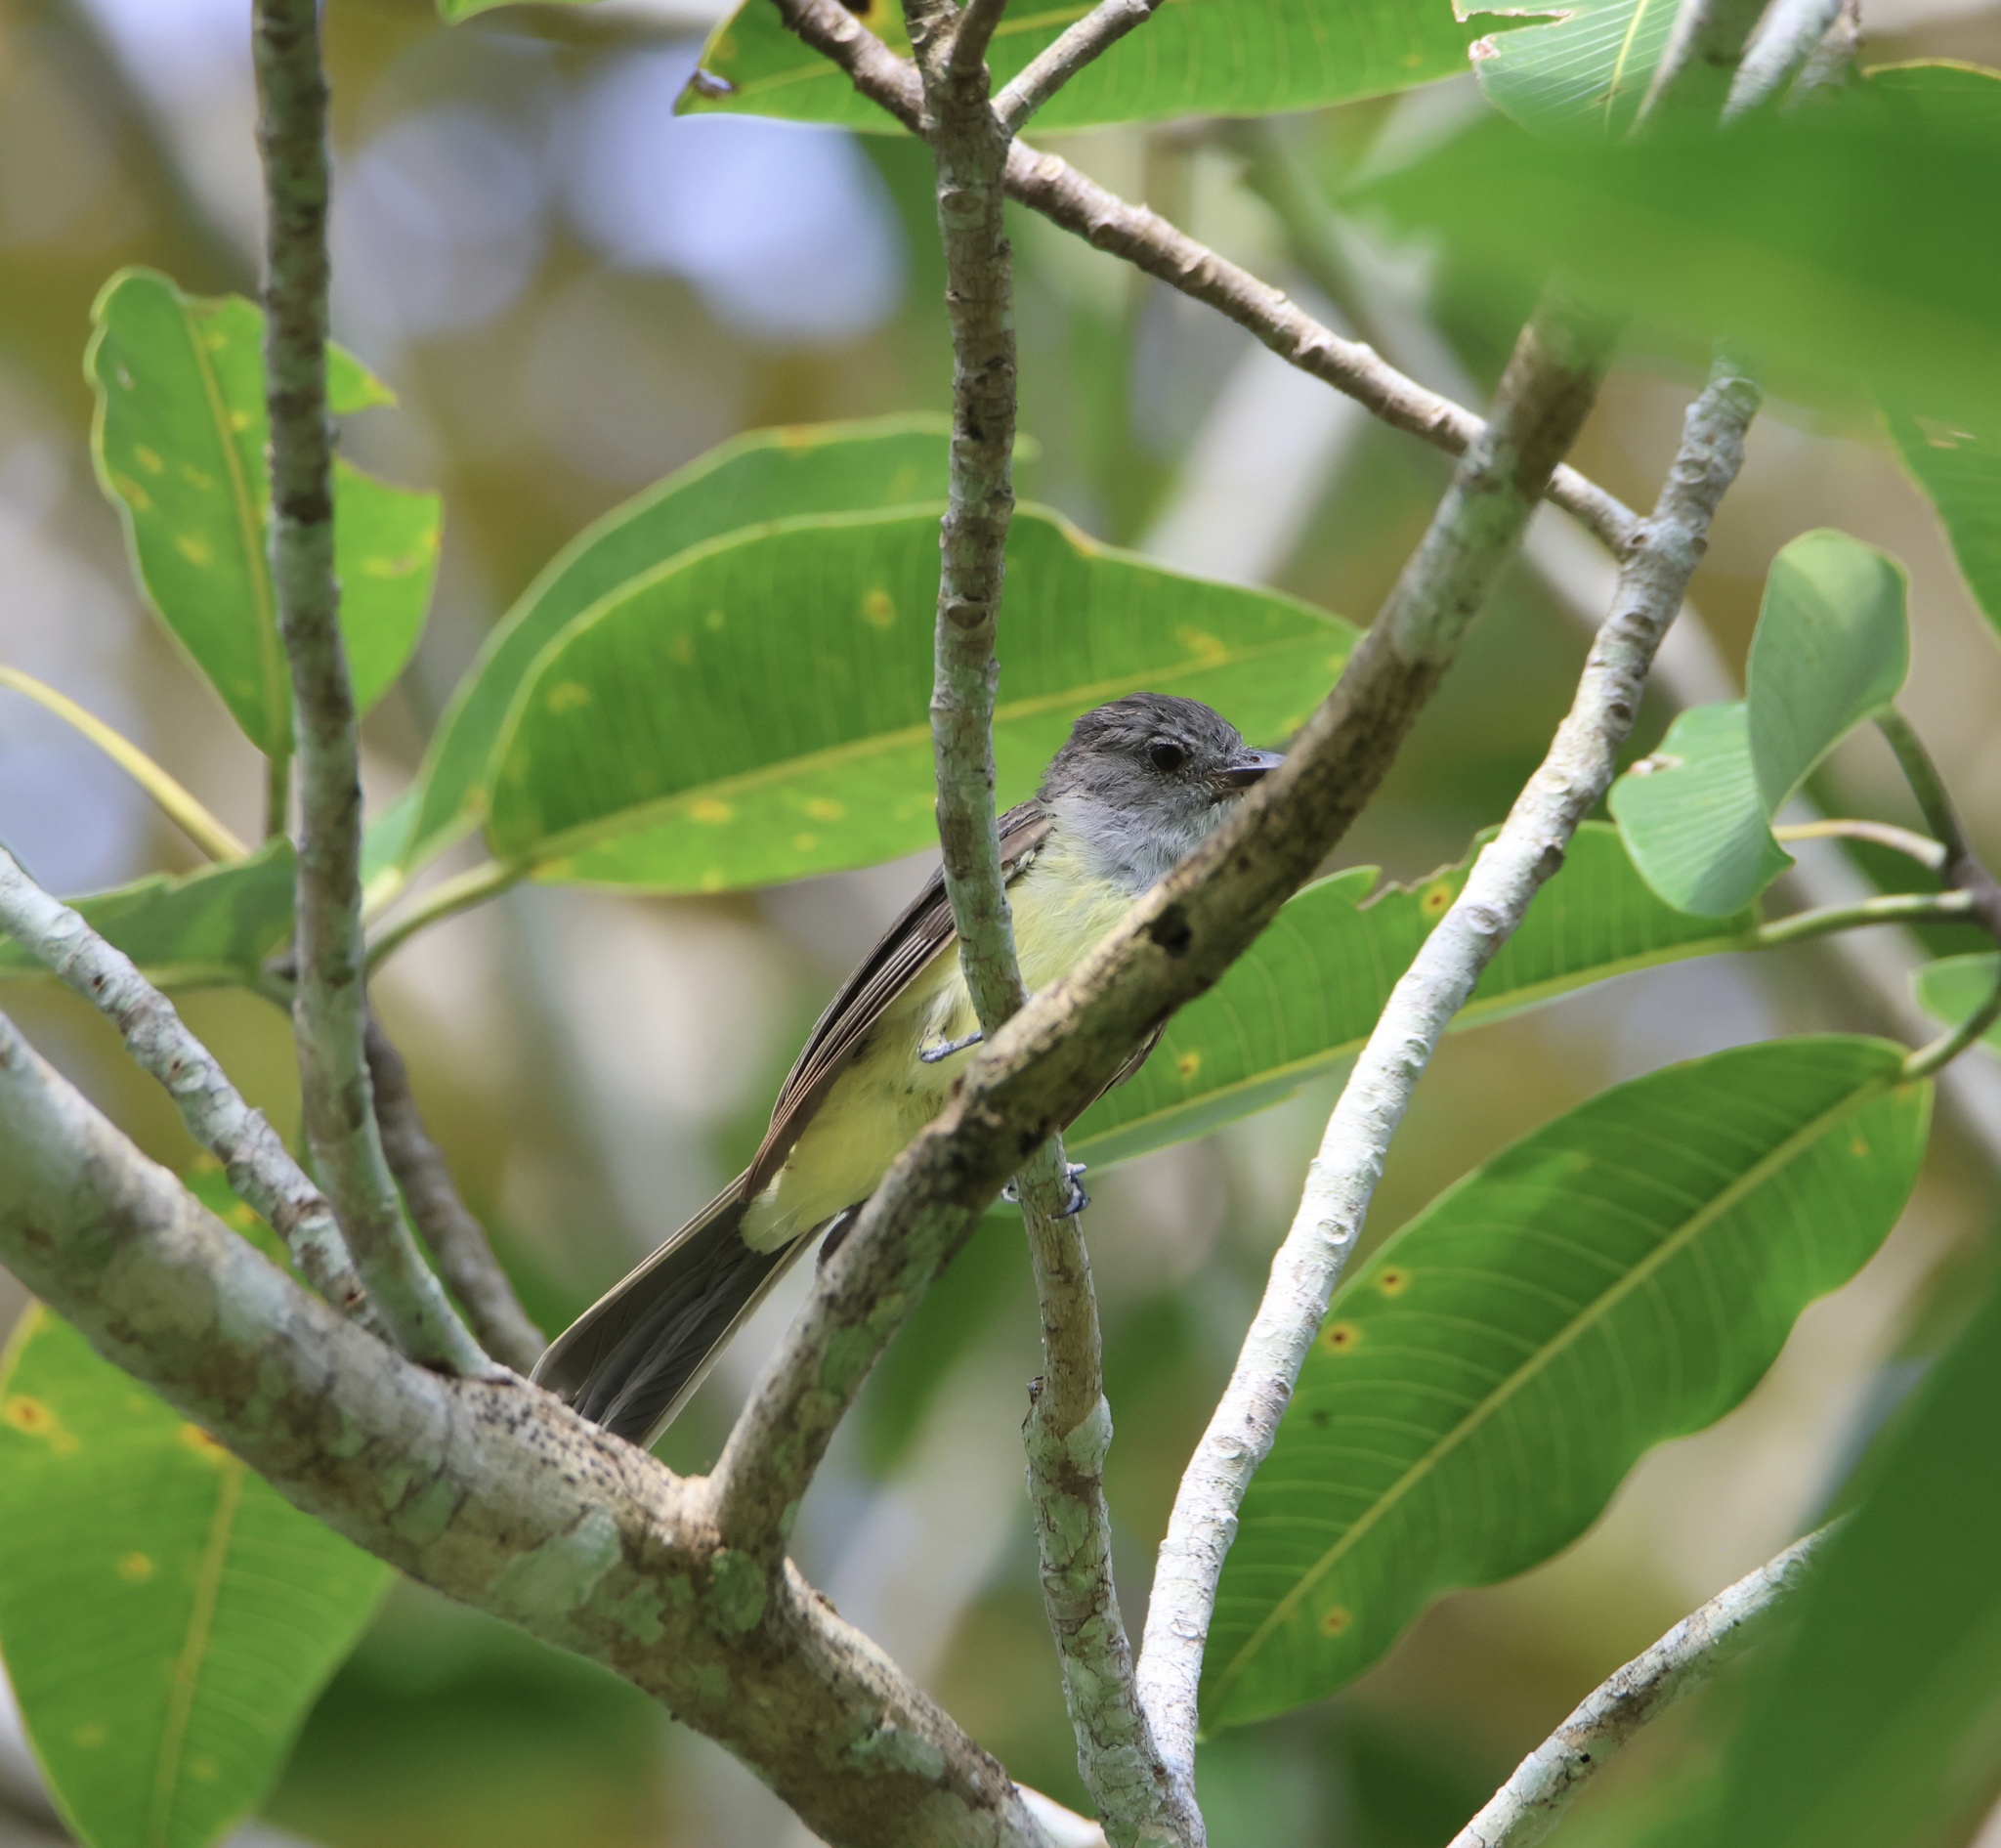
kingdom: Animalia
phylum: Chordata
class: Aves
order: Passeriformes
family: Tyrannidae
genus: Myiarchus
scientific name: Myiarchus panamensis
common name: Panama flycatcher
